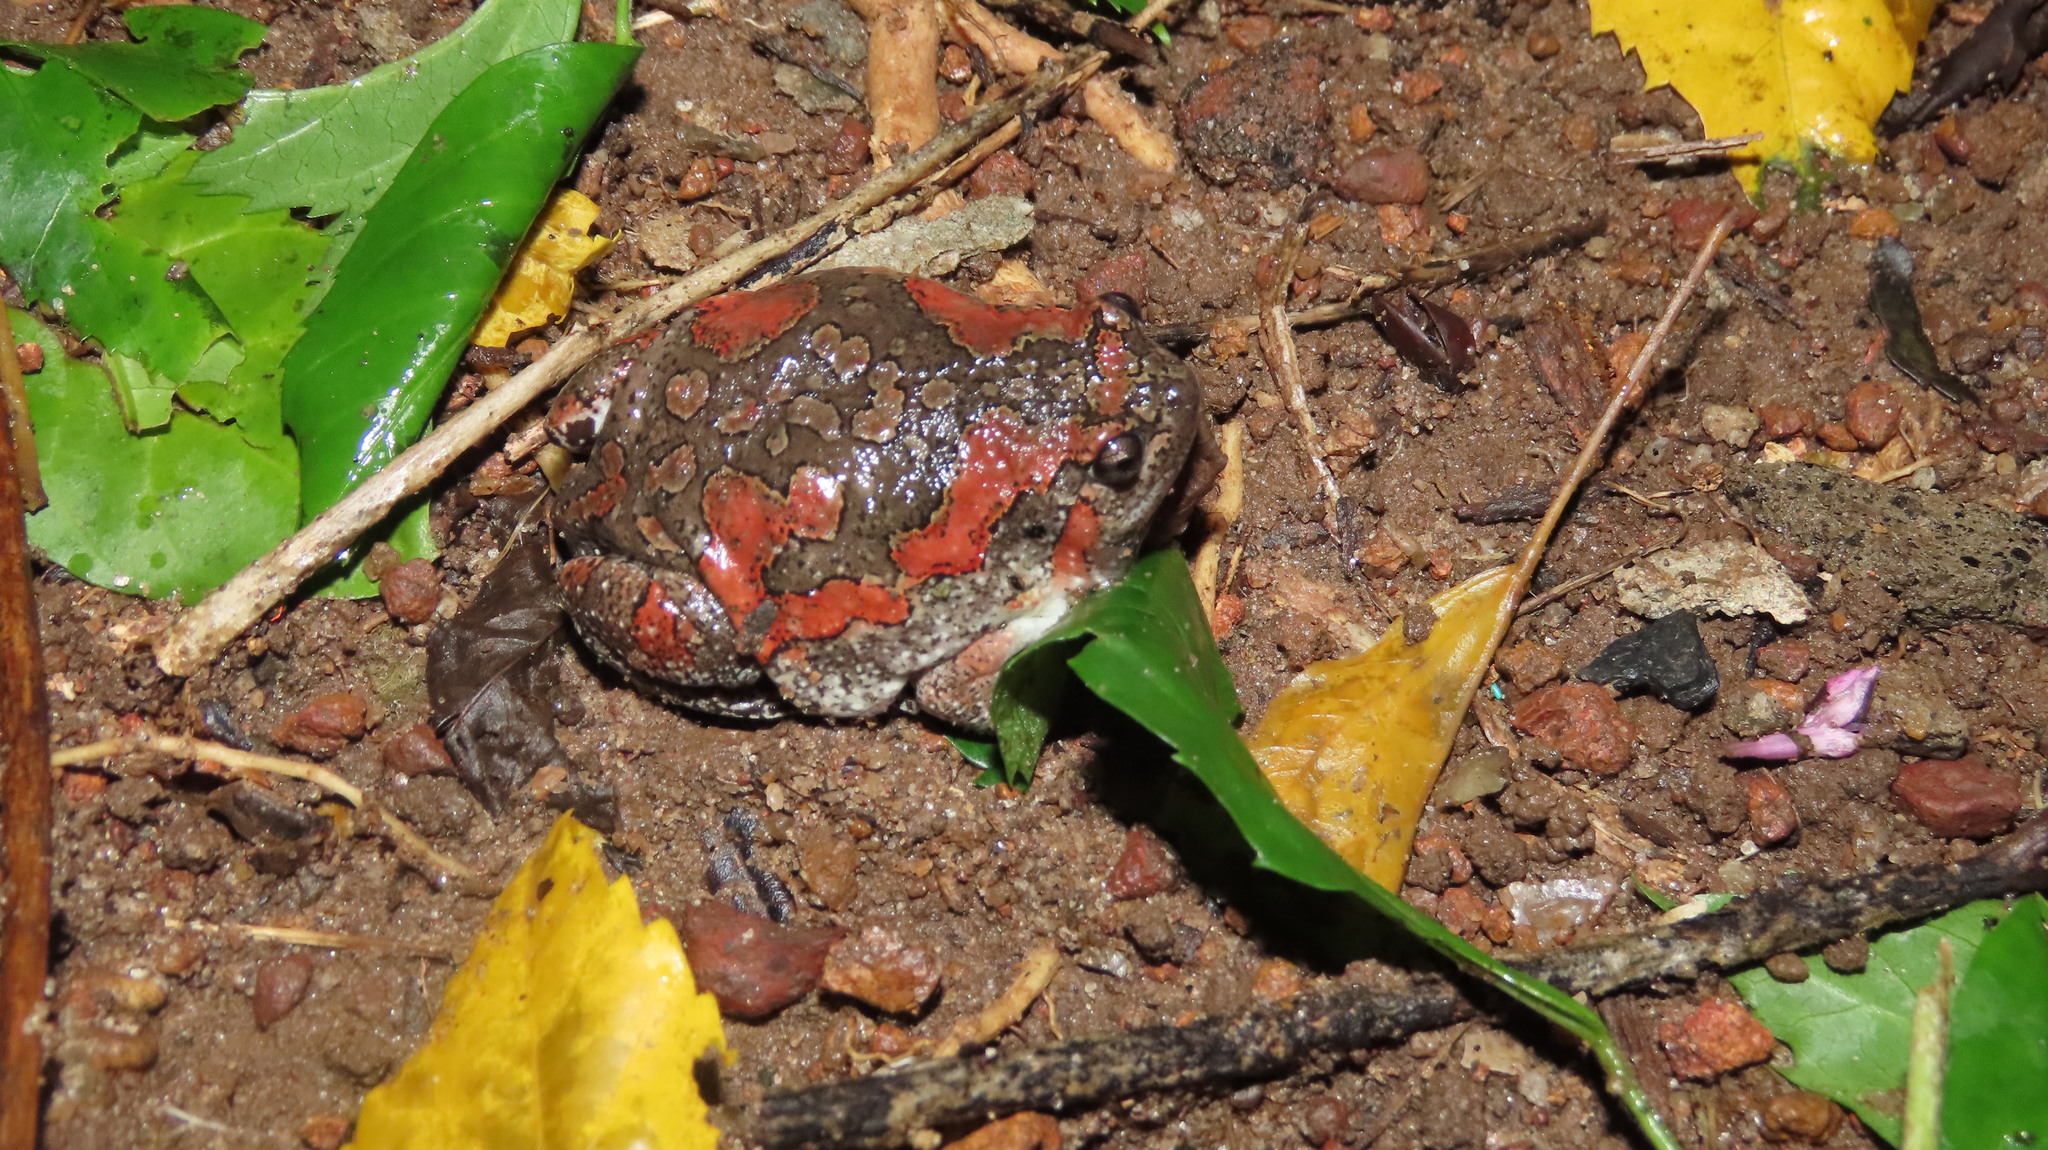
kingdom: Animalia
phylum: Chordata
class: Amphibia
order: Anura
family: Microhylidae
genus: Uperodon
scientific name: Uperodon taprobanicus
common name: Ceylon kaloula
